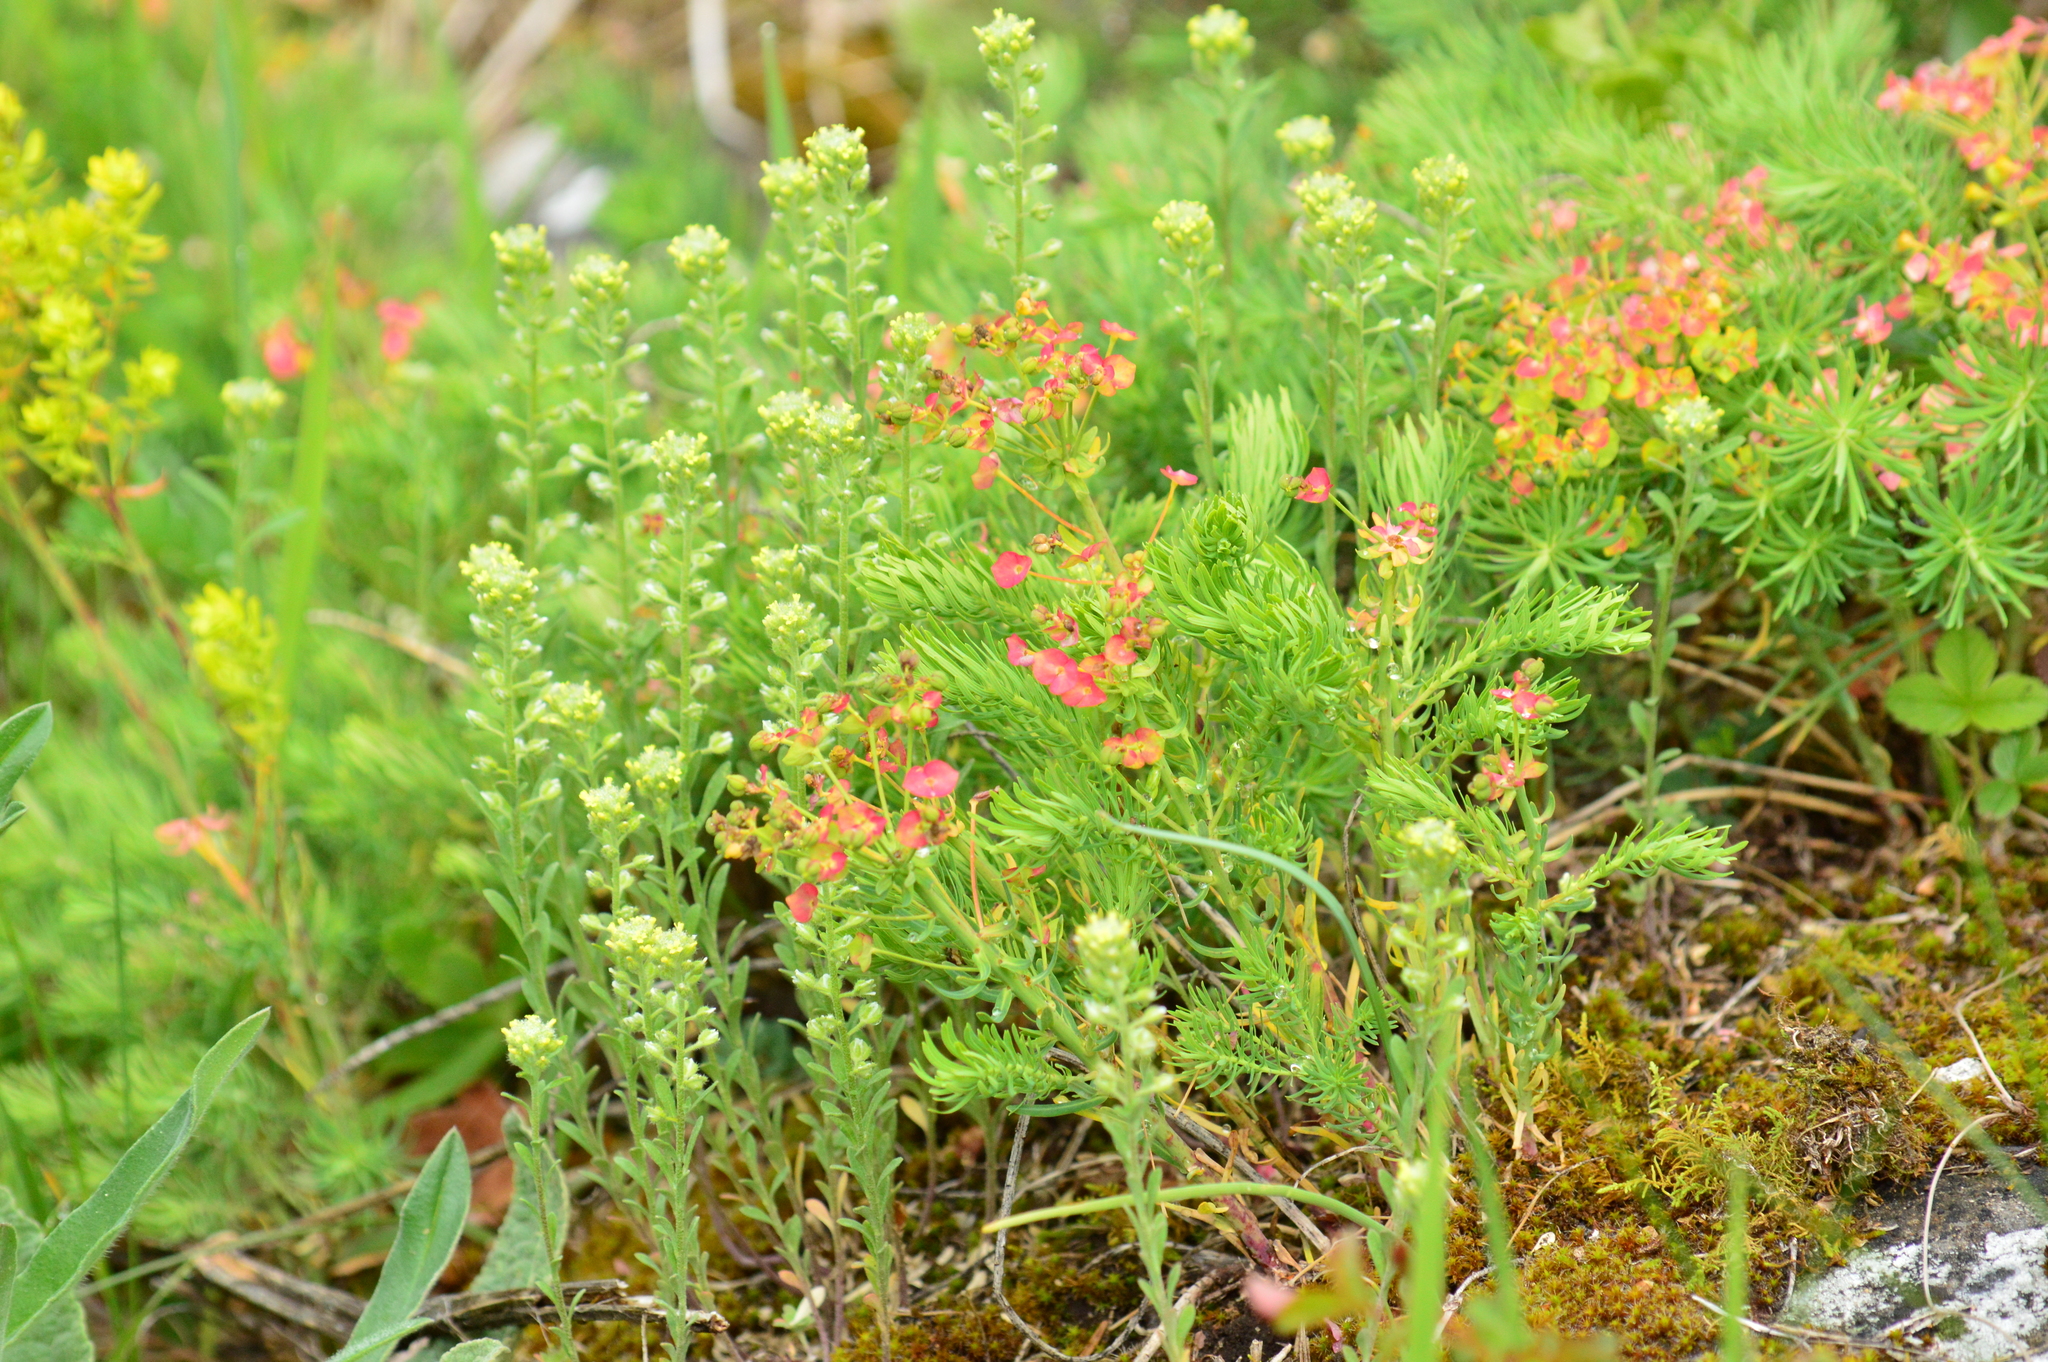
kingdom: Plantae
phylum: Tracheophyta
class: Magnoliopsida
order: Malpighiales
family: Euphorbiaceae
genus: Euphorbia
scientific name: Euphorbia cyparissias
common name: Cypress spurge
